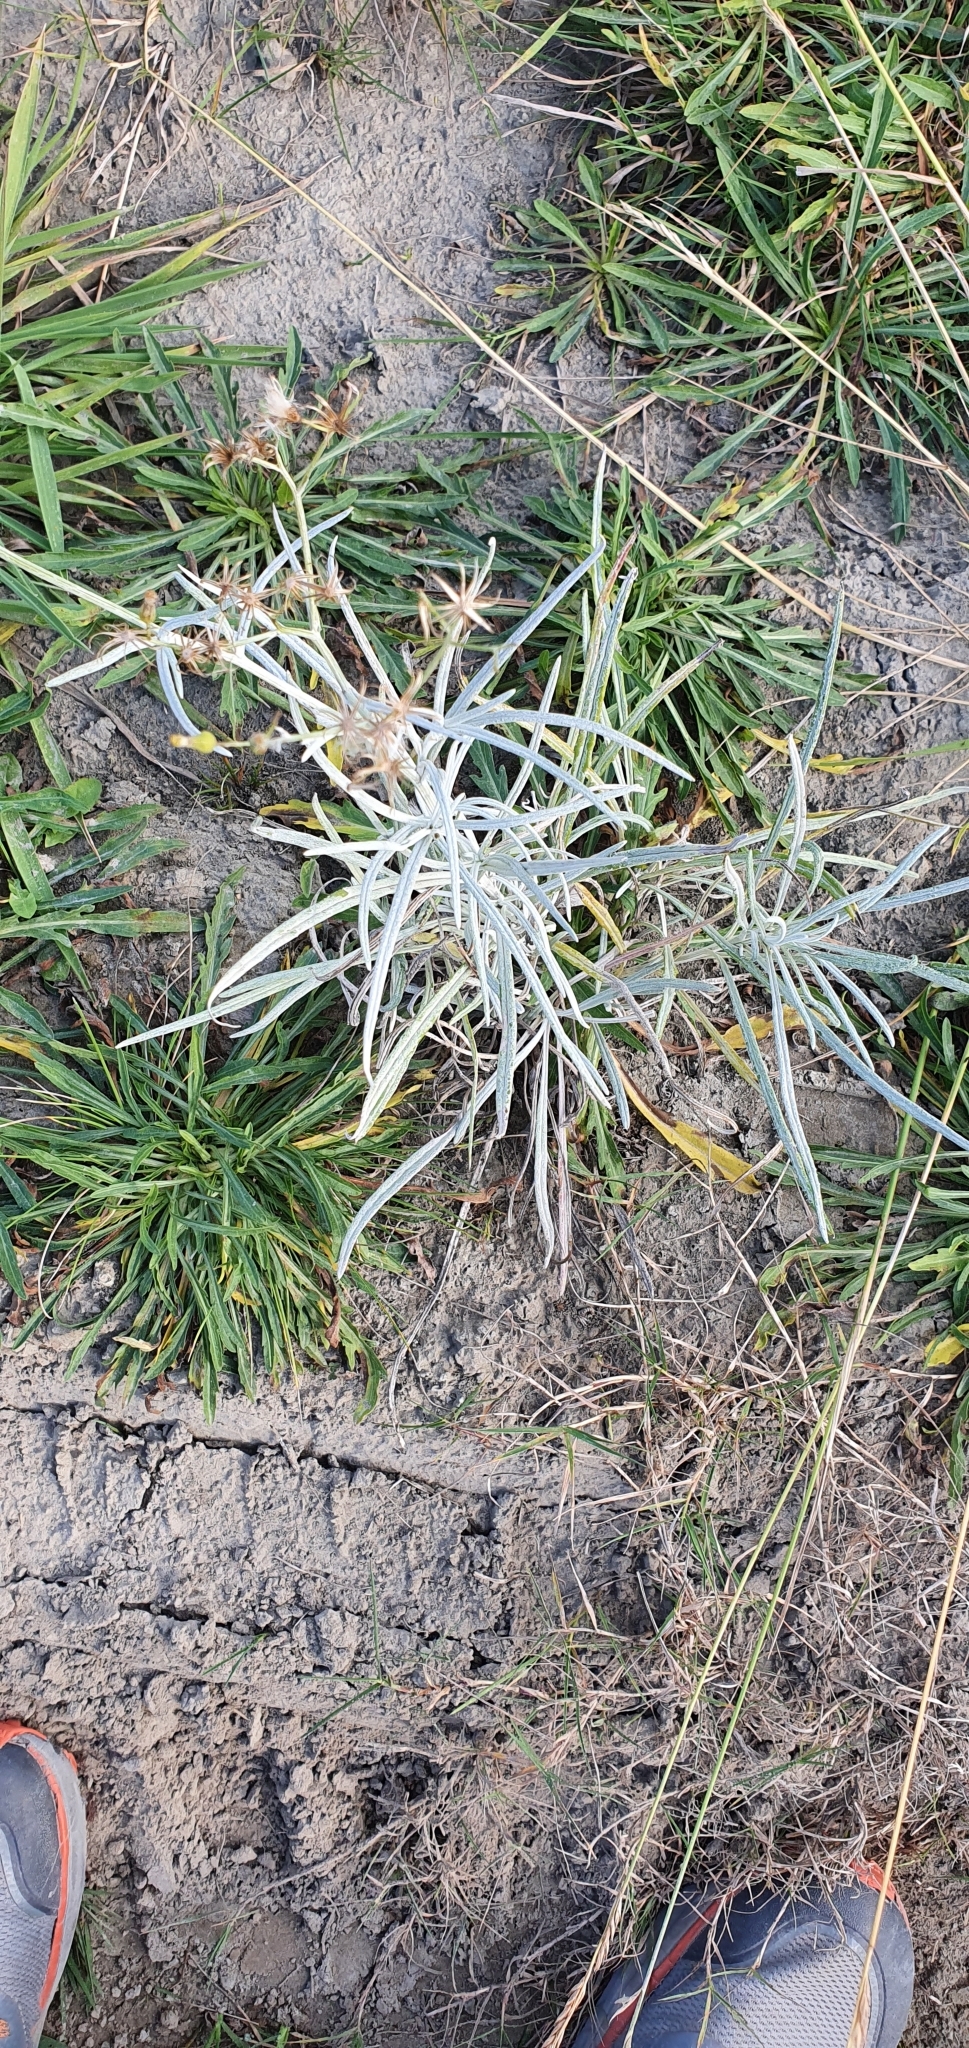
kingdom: Plantae
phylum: Tracheophyta
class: Magnoliopsida
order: Asterales
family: Asteraceae
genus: Senecio
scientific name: Senecio quadridentatus
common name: Cotton fireweed
